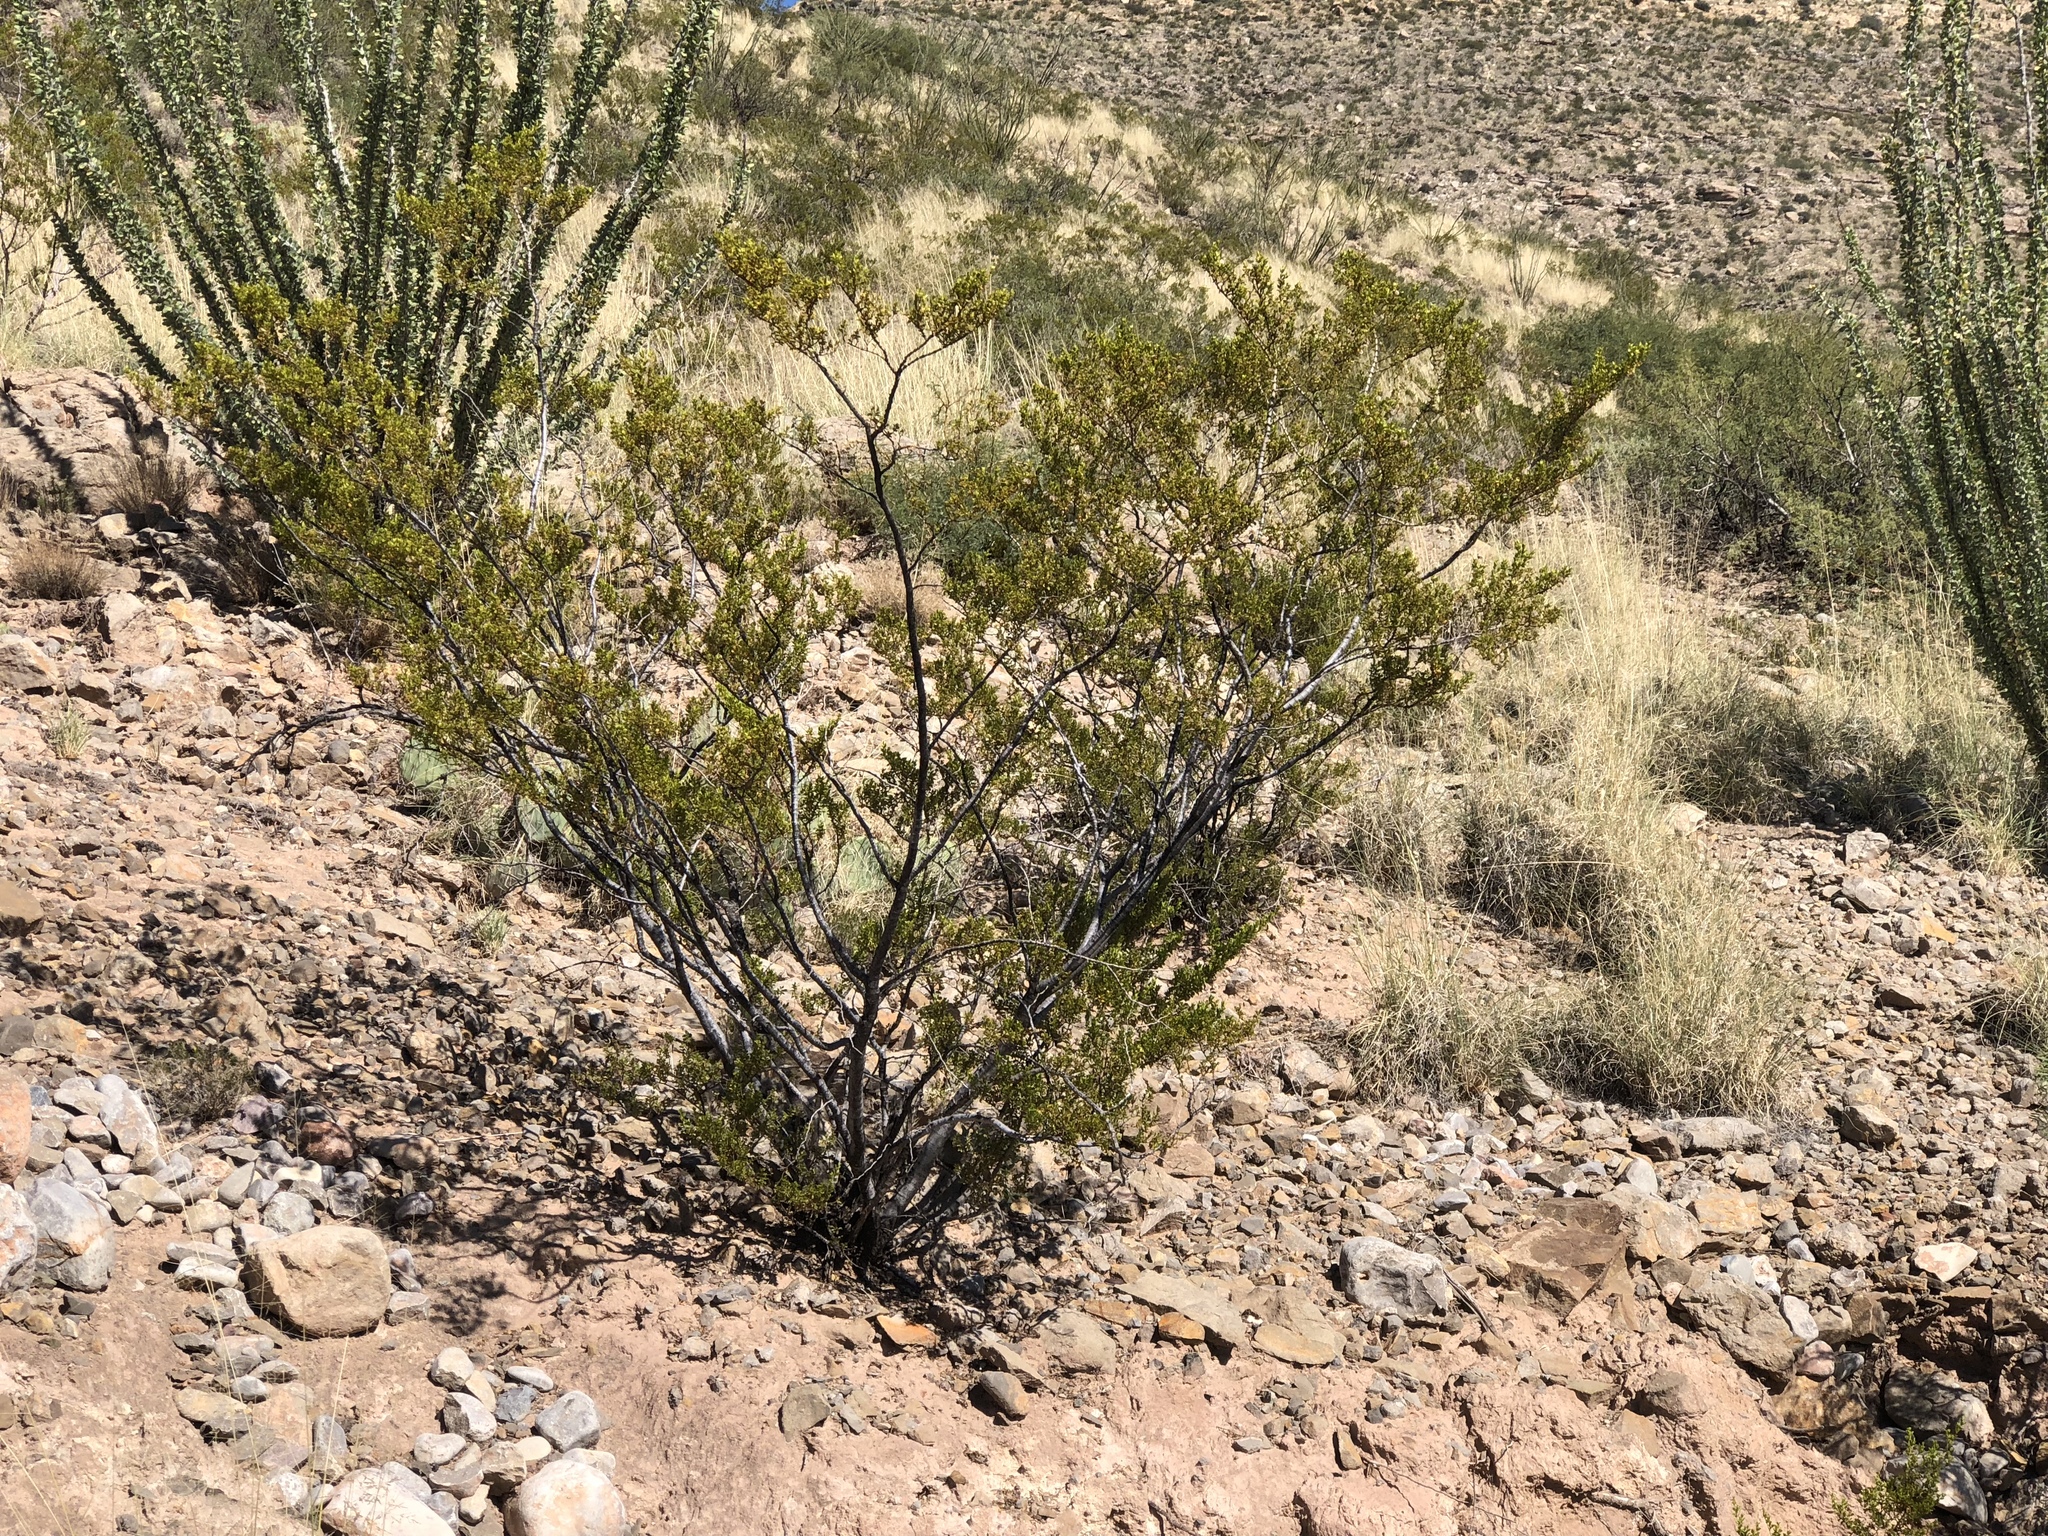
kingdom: Plantae
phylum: Tracheophyta
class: Magnoliopsida
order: Zygophyllales
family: Zygophyllaceae
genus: Larrea
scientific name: Larrea tridentata
